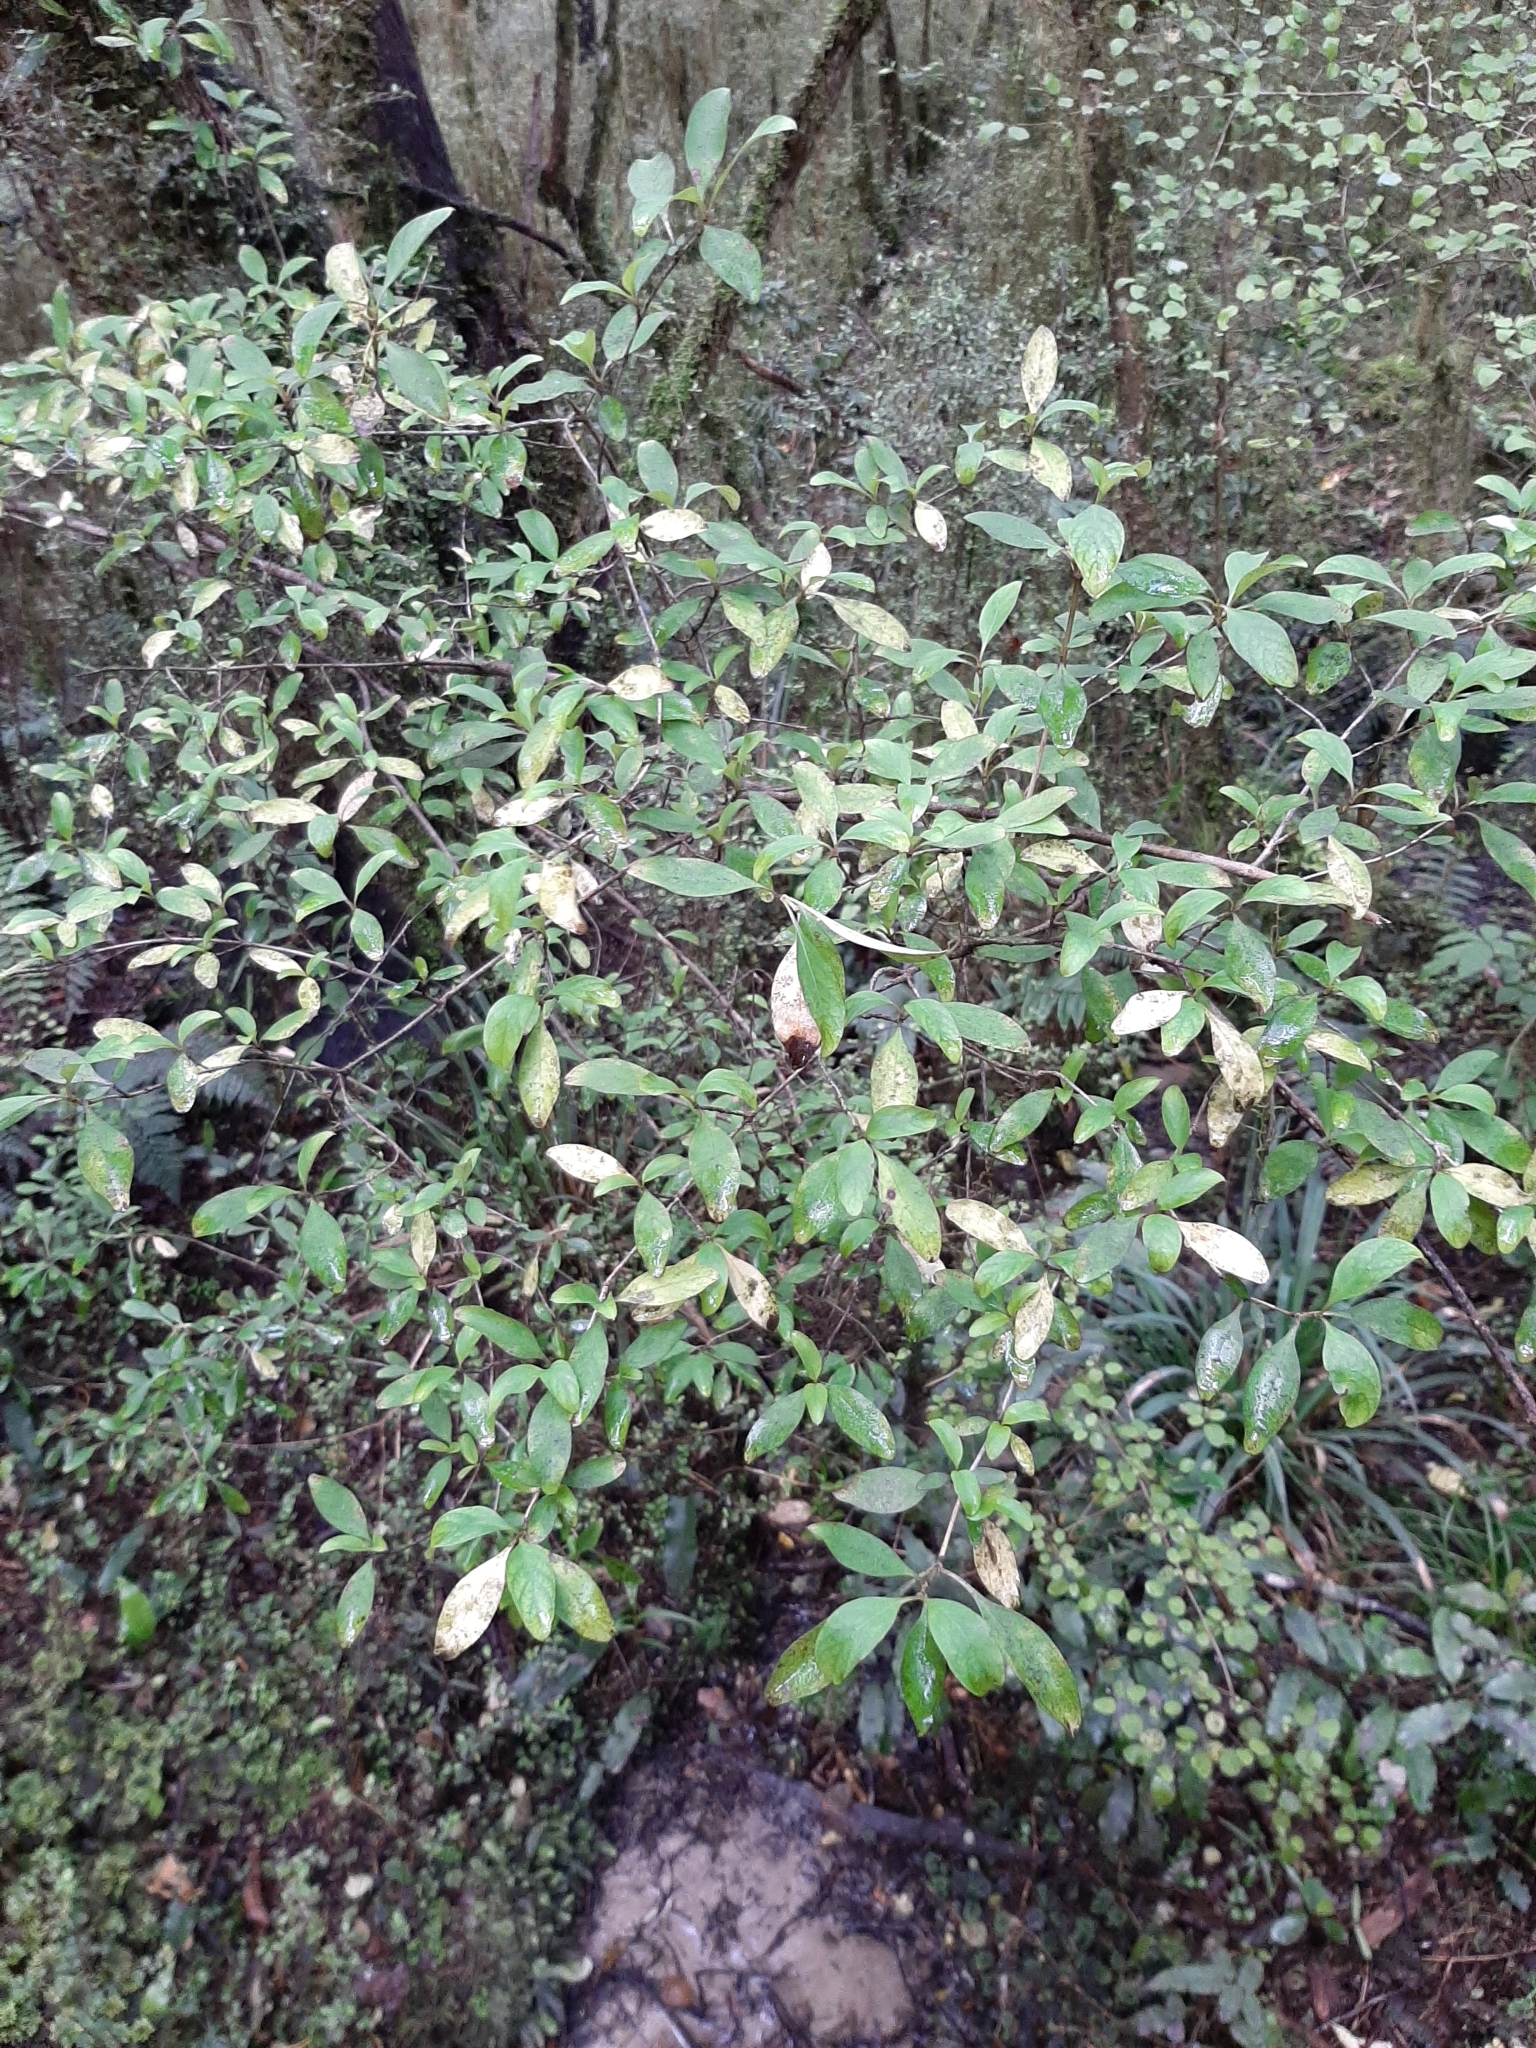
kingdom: Plantae
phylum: Tracheophyta
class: Magnoliopsida
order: Gentianales
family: Rubiaceae
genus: Coprosma
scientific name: Coprosma foetidissima
